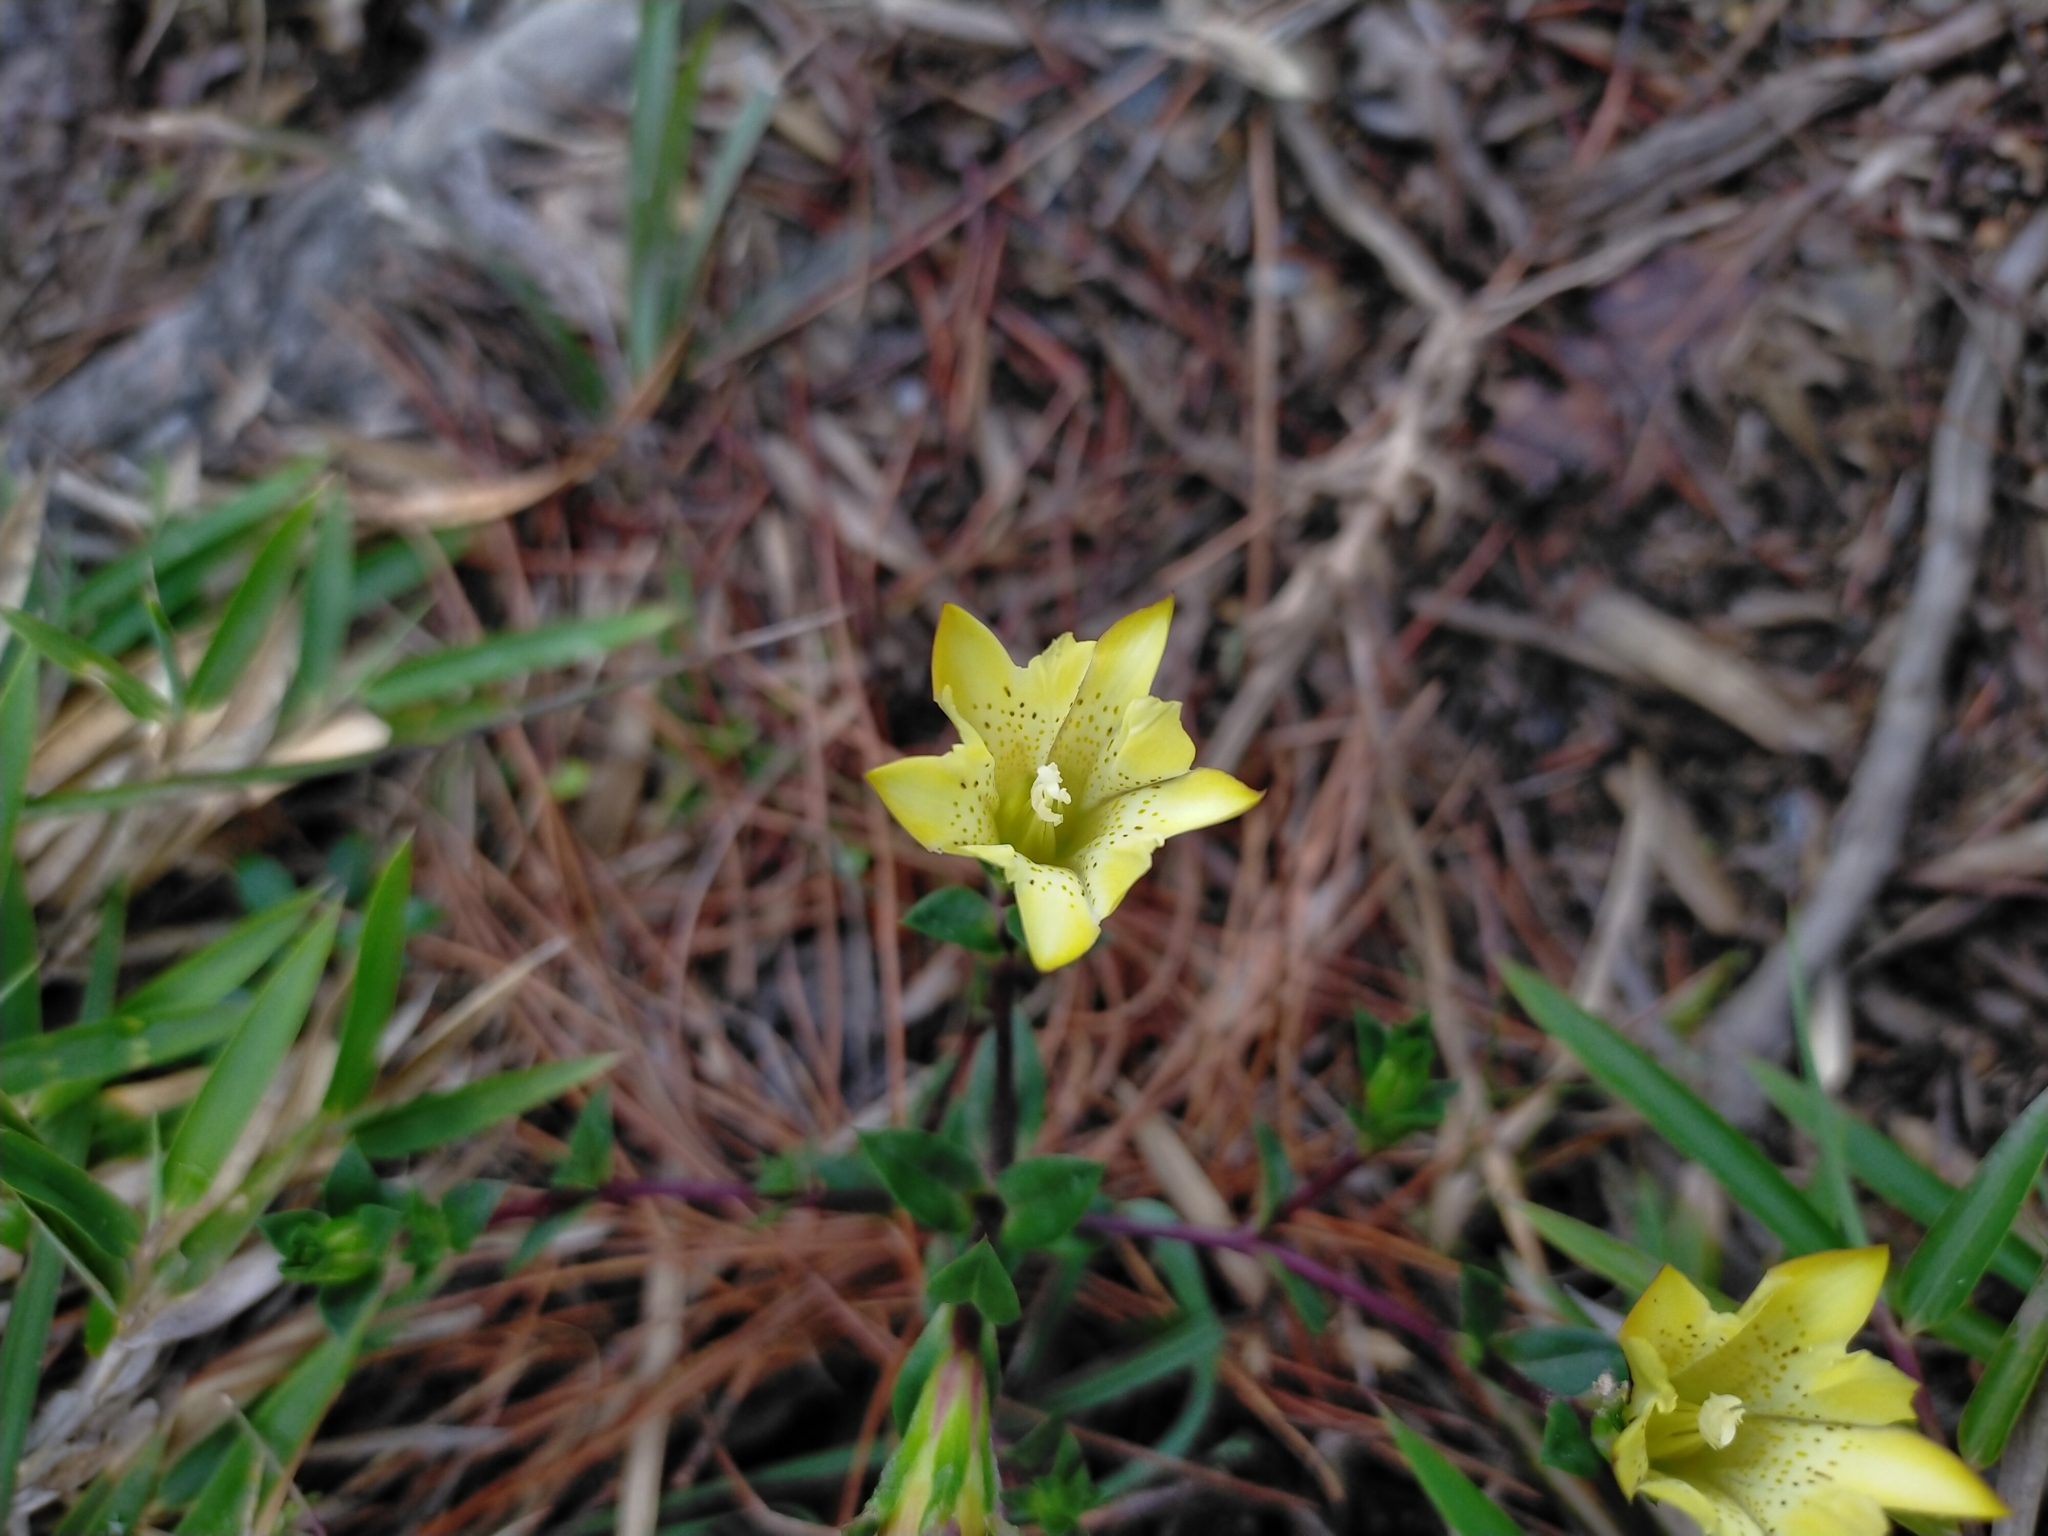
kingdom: Plantae
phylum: Tracheophyta
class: Magnoliopsida
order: Gentianales
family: Gentianaceae
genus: Gentiana
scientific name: Gentiana scabrida
